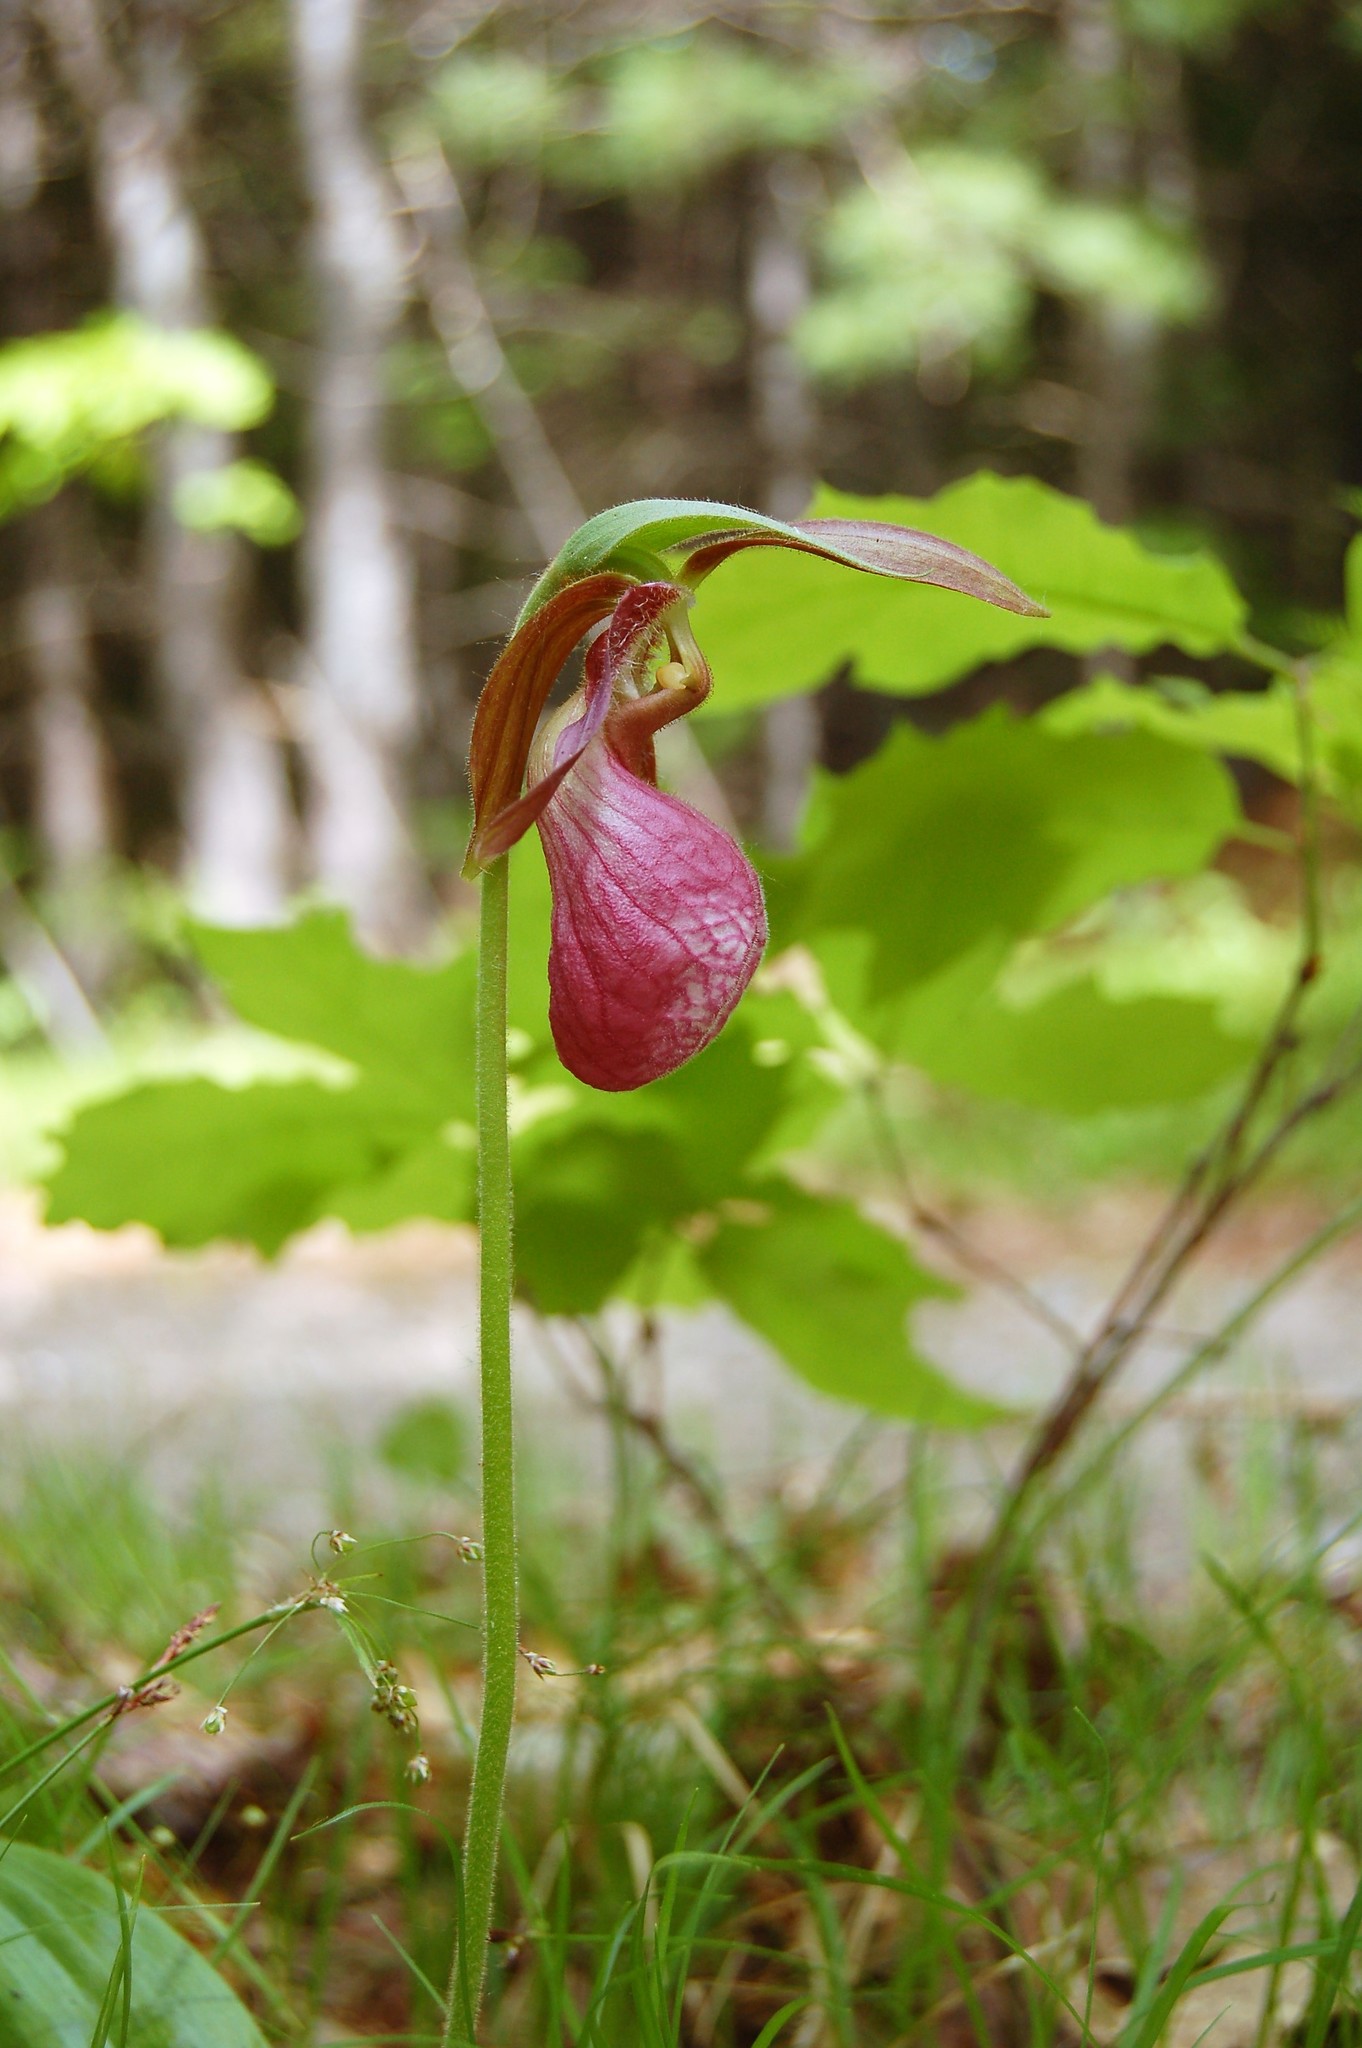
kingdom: Plantae
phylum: Tracheophyta
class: Liliopsida
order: Asparagales
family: Orchidaceae
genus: Cypripedium
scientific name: Cypripedium acaule
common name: Pink lady's-slipper
